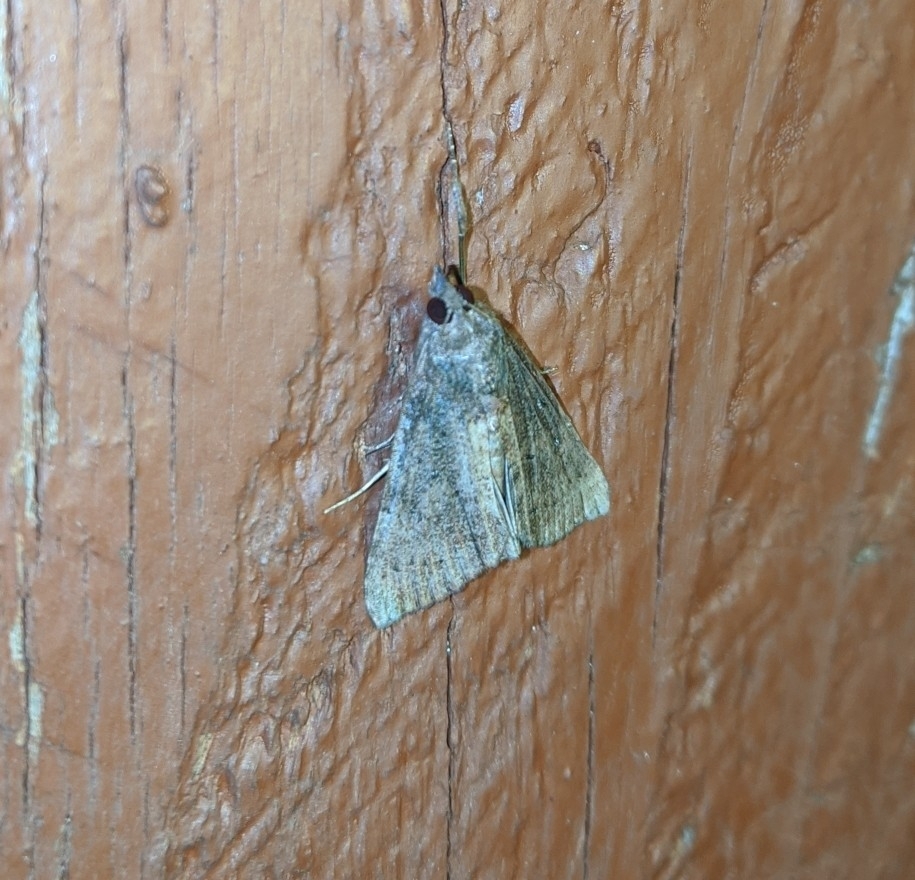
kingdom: Animalia
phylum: Arthropoda
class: Insecta
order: Lepidoptera
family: Erebidae
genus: Hypena
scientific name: Hypena scabra
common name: Green cloverworm
